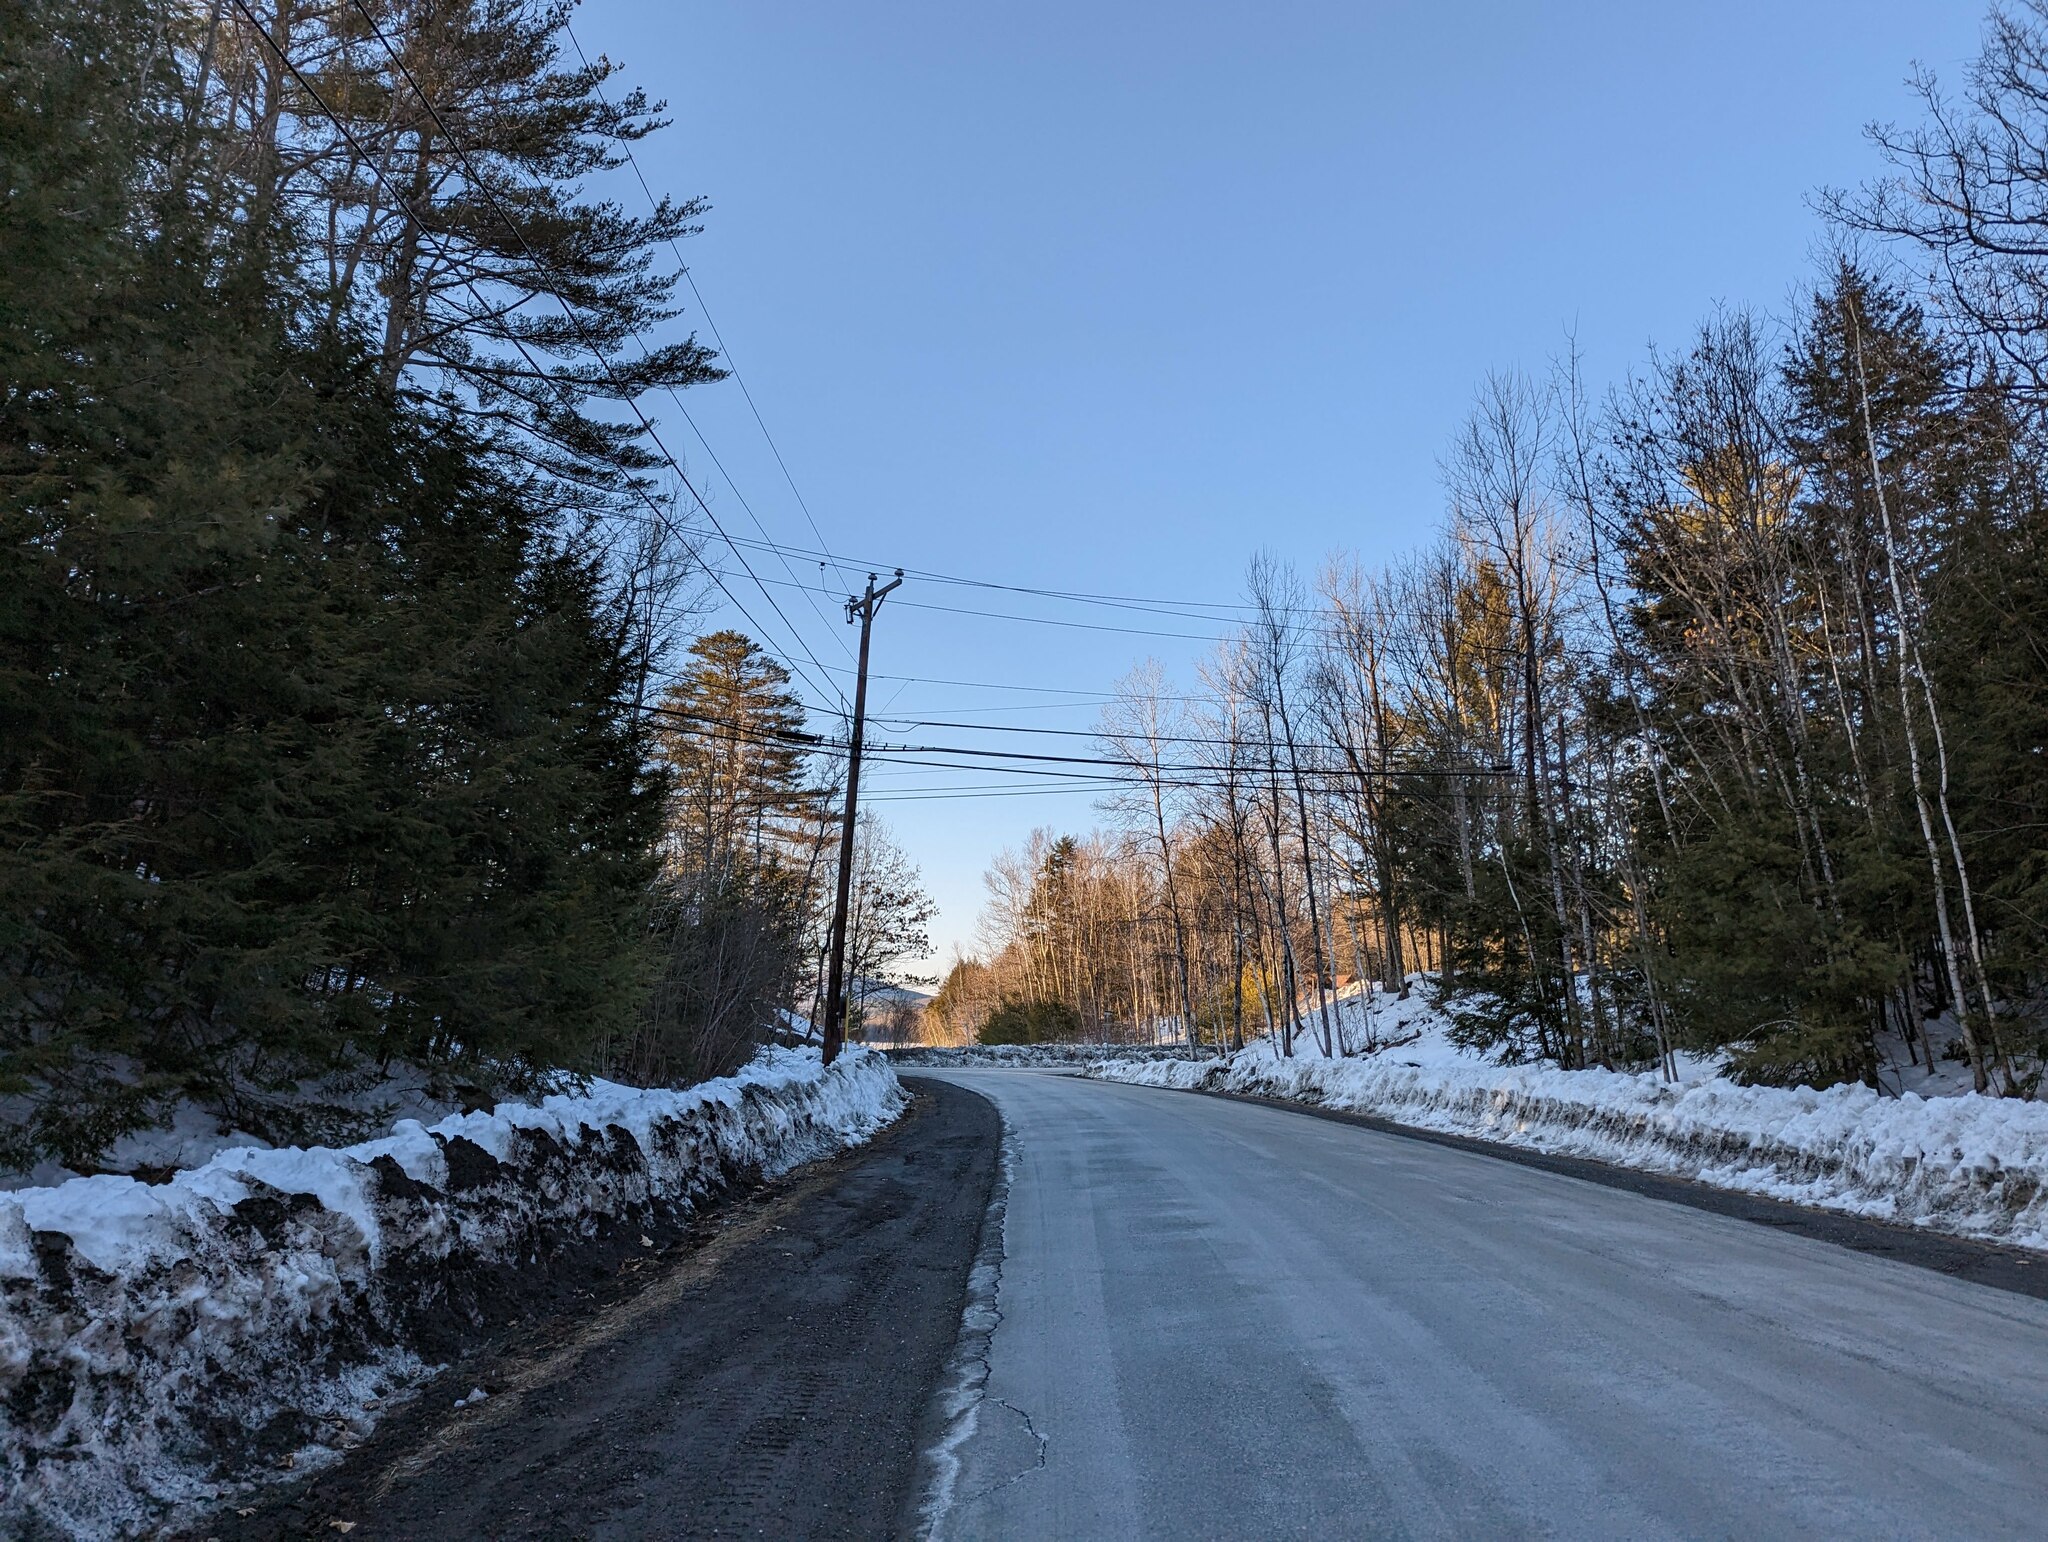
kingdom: Plantae
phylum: Tracheophyta
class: Pinopsida
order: Pinales
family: Pinaceae
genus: Pinus
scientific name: Pinus strobus
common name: Weymouth pine
